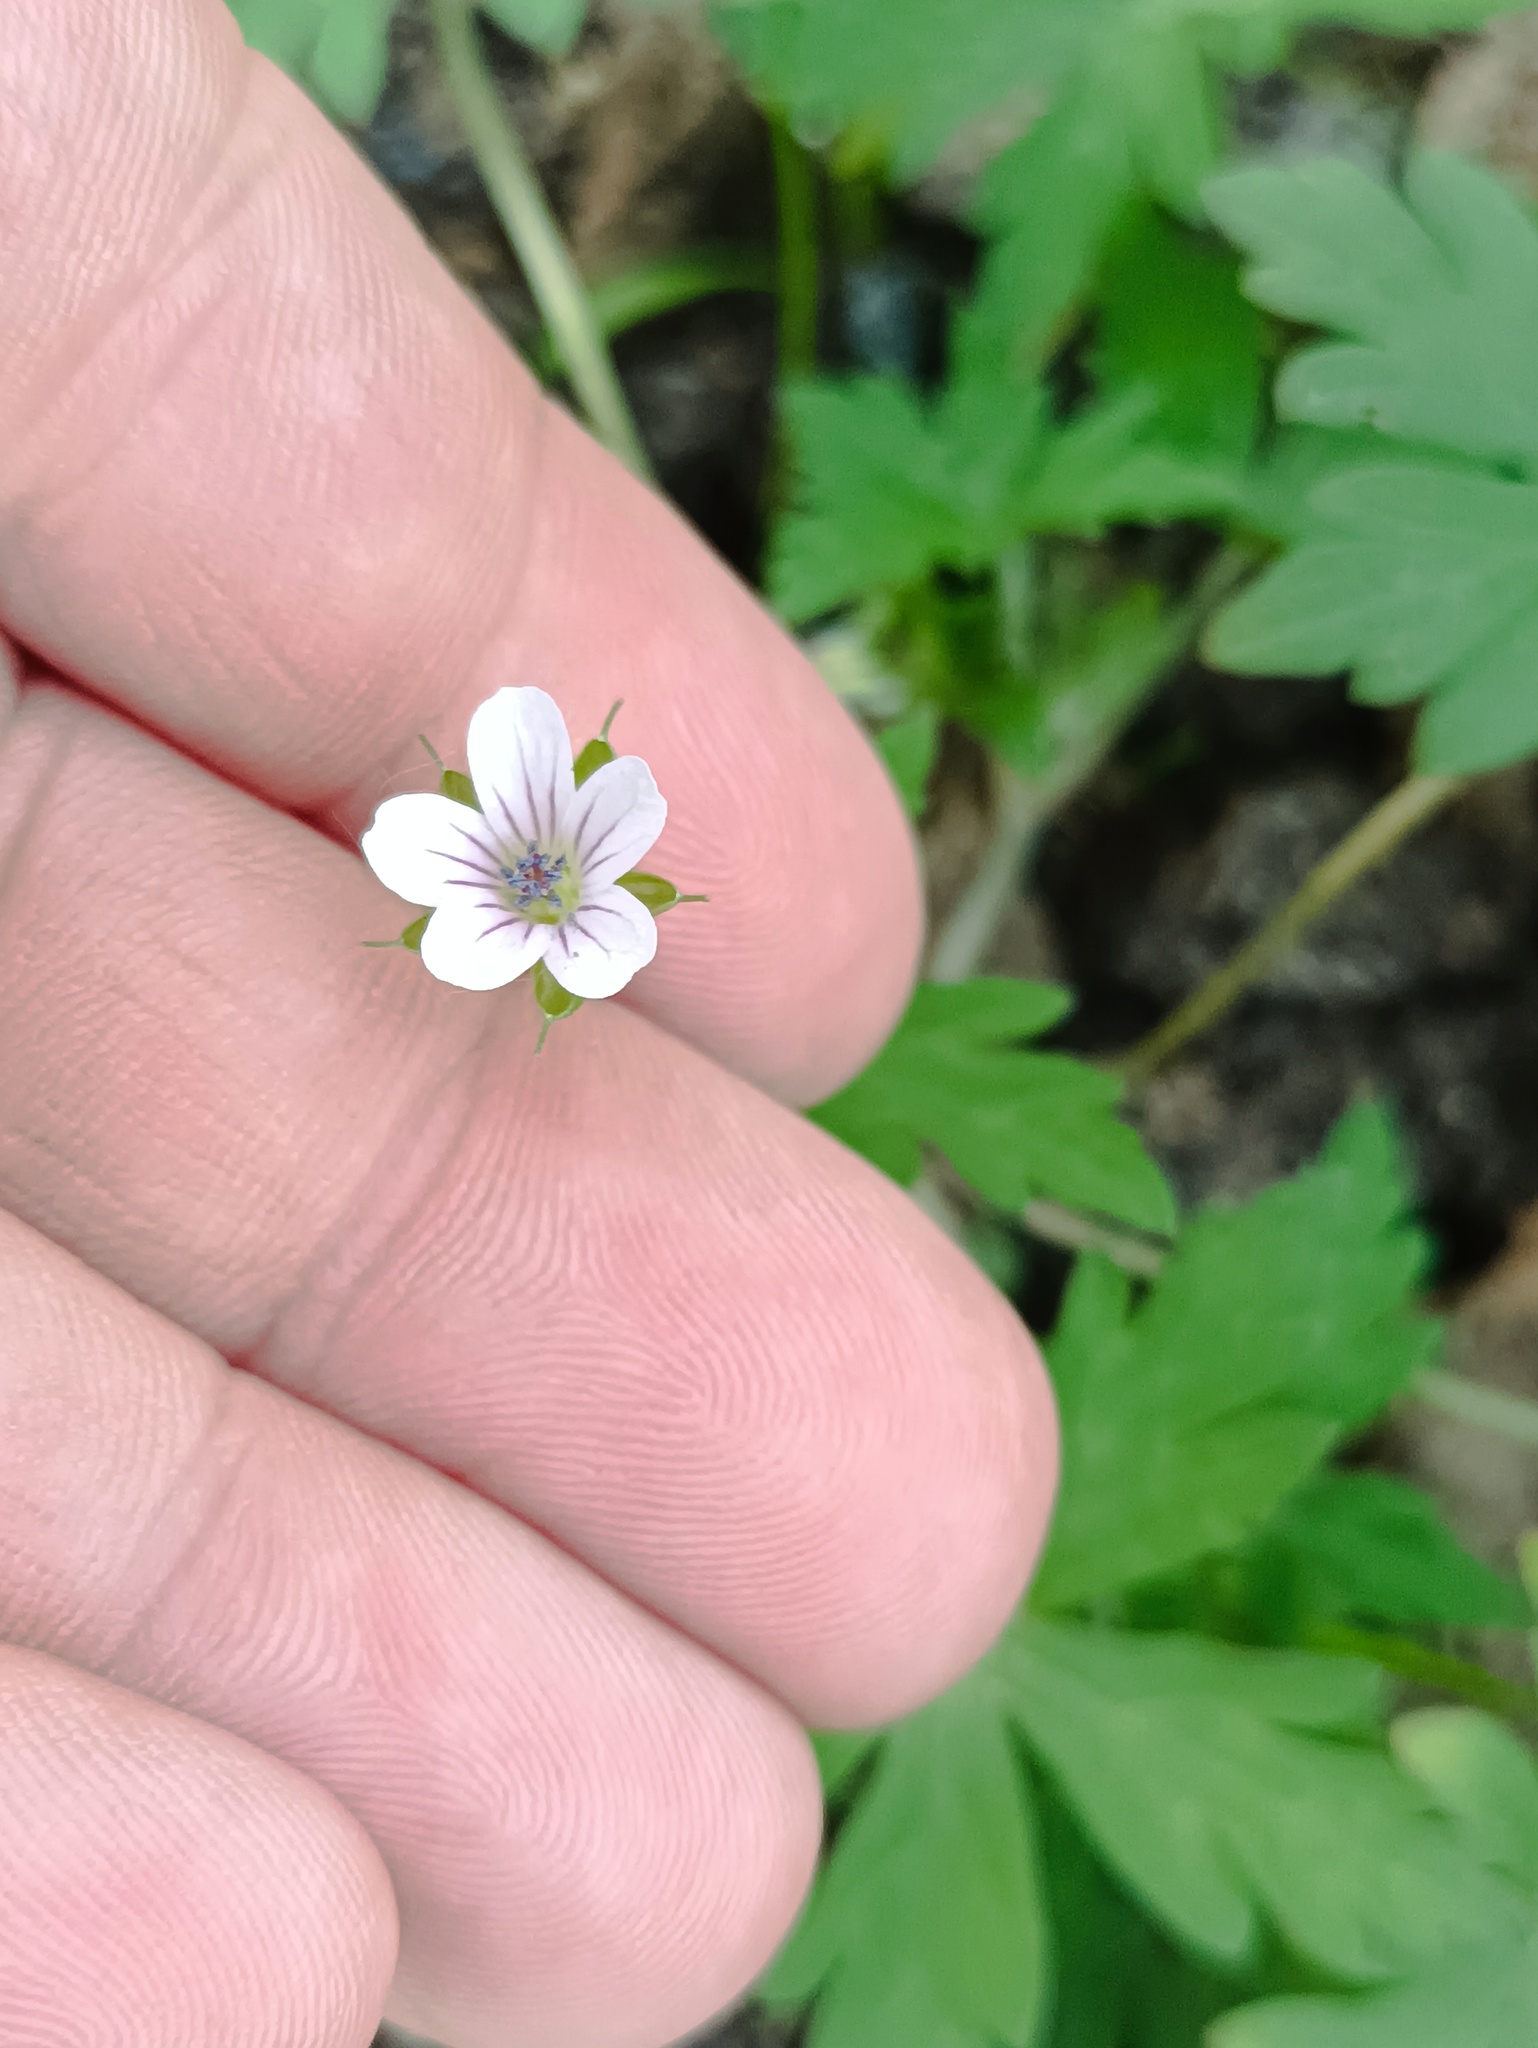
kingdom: Plantae
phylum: Tracheophyta
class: Magnoliopsida
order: Geraniales
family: Geraniaceae
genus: Geranium
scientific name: Geranium sibiricum
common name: Siberian crane's-bill
